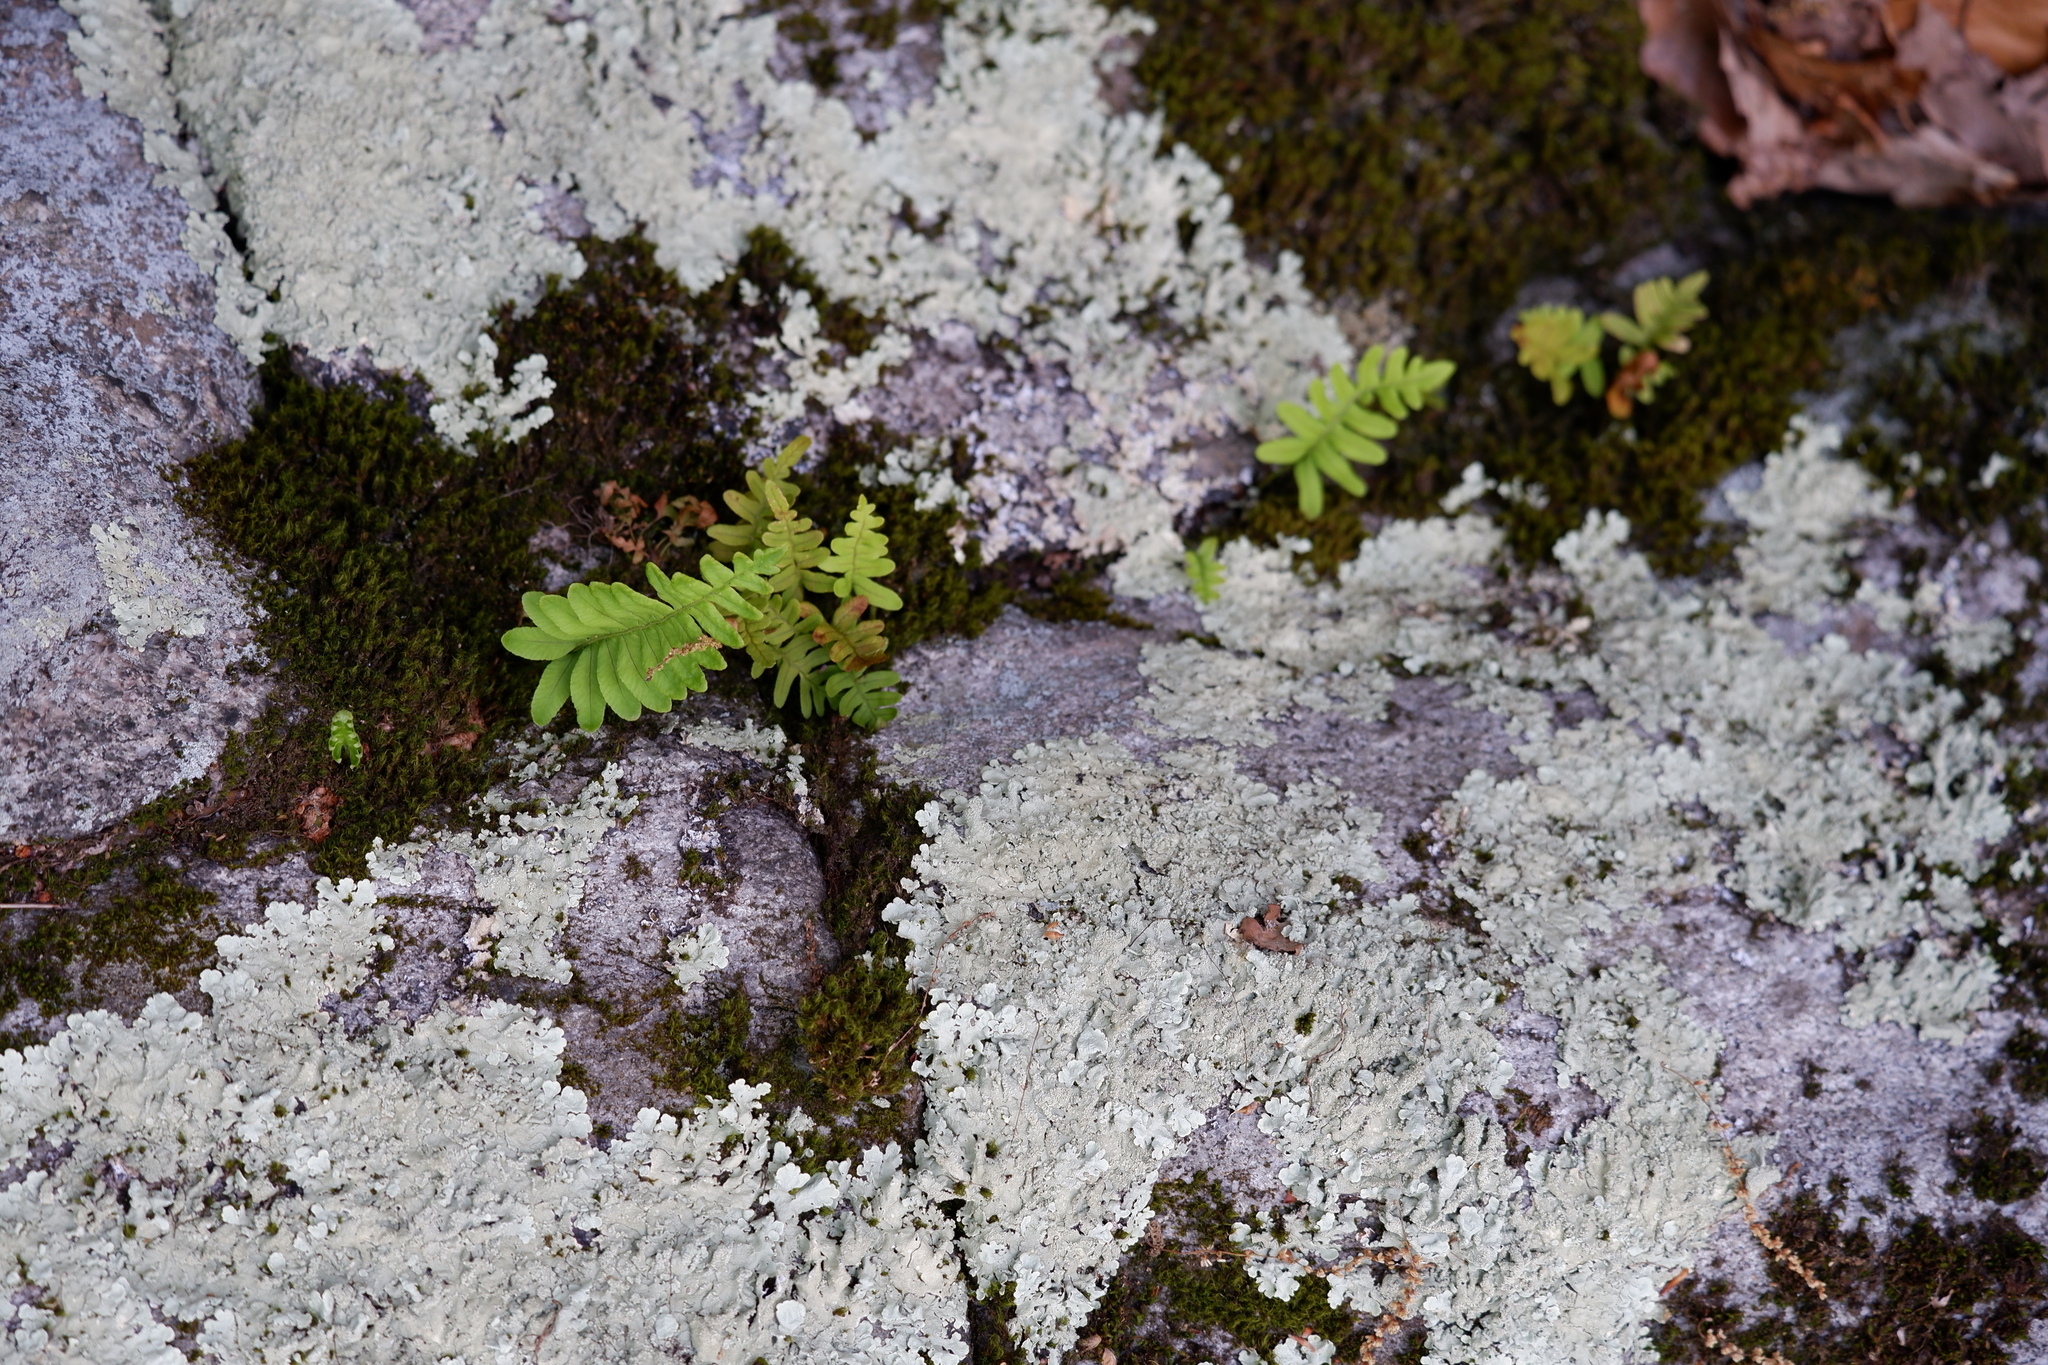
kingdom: Plantae
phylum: Tracheophyta
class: Polypodiopsida
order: Polypodiales
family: Polypodiaceae
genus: Polypodium
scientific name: Polypodium virginianum
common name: American wall fern
